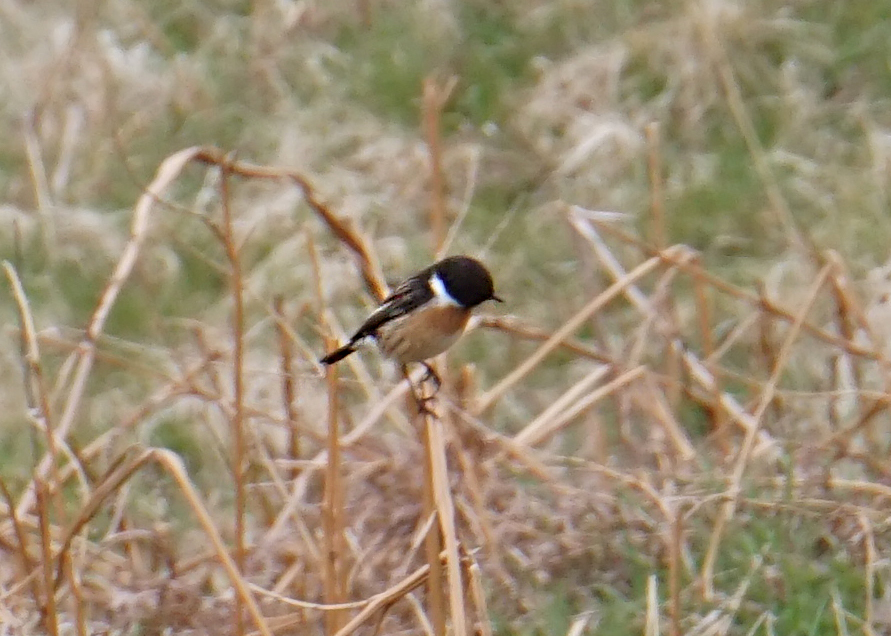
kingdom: Animalia
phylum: Chordata
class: Aves
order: Passeriformes
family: Muscicapidae
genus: Saxicola
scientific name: Saxicola rubicola
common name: European stonechat
